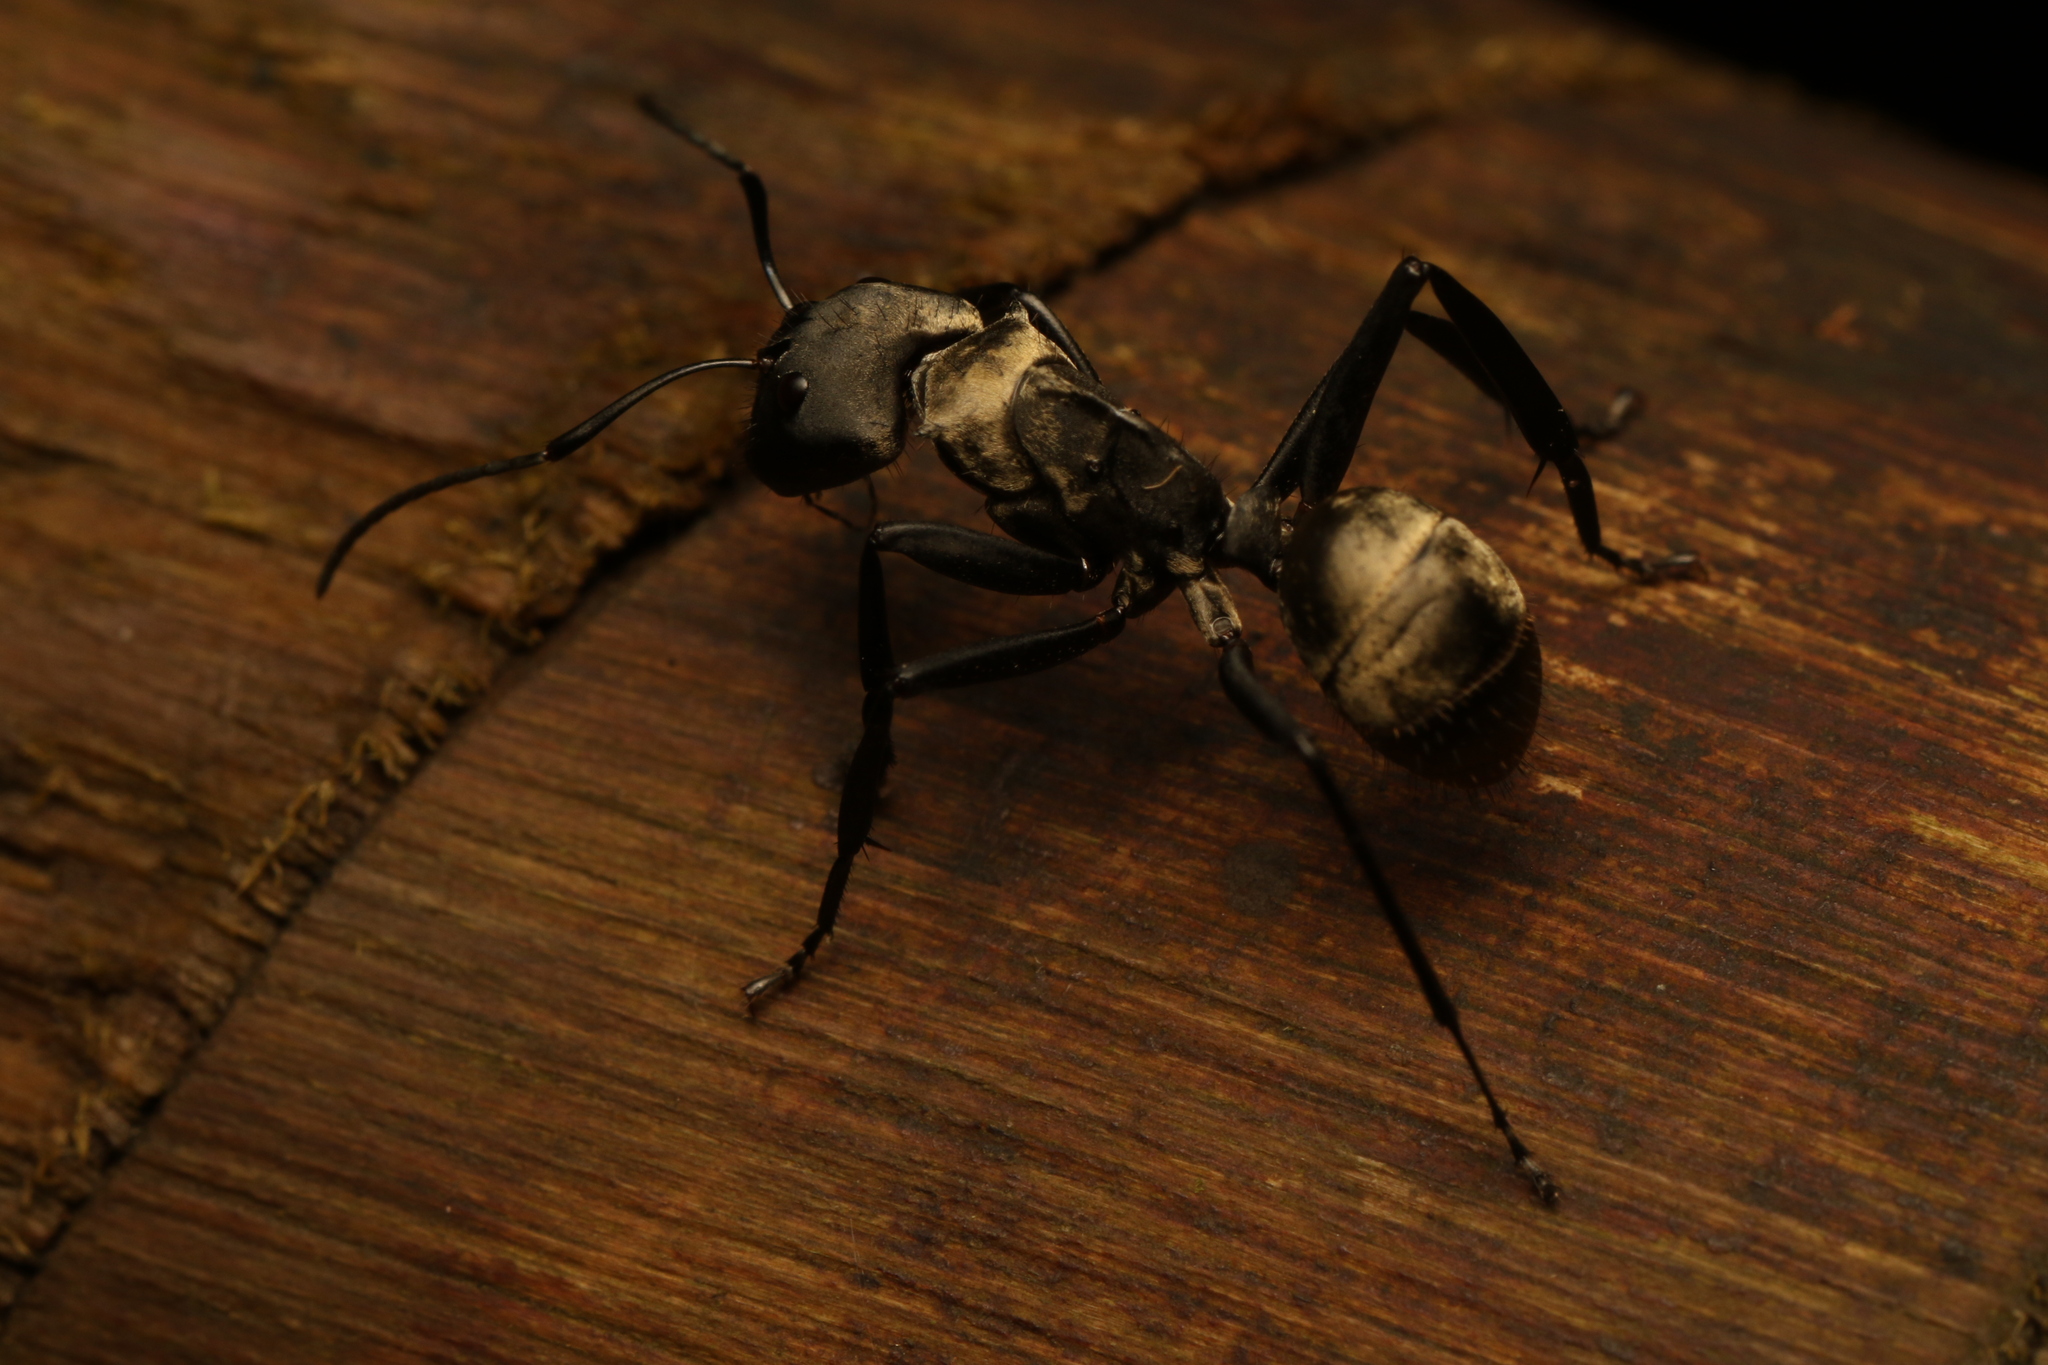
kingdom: Animalia
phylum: Arthropoda
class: Insecta
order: Hymenoptera
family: Formicidae
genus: Camponotus
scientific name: Camponotus sericeiventris
